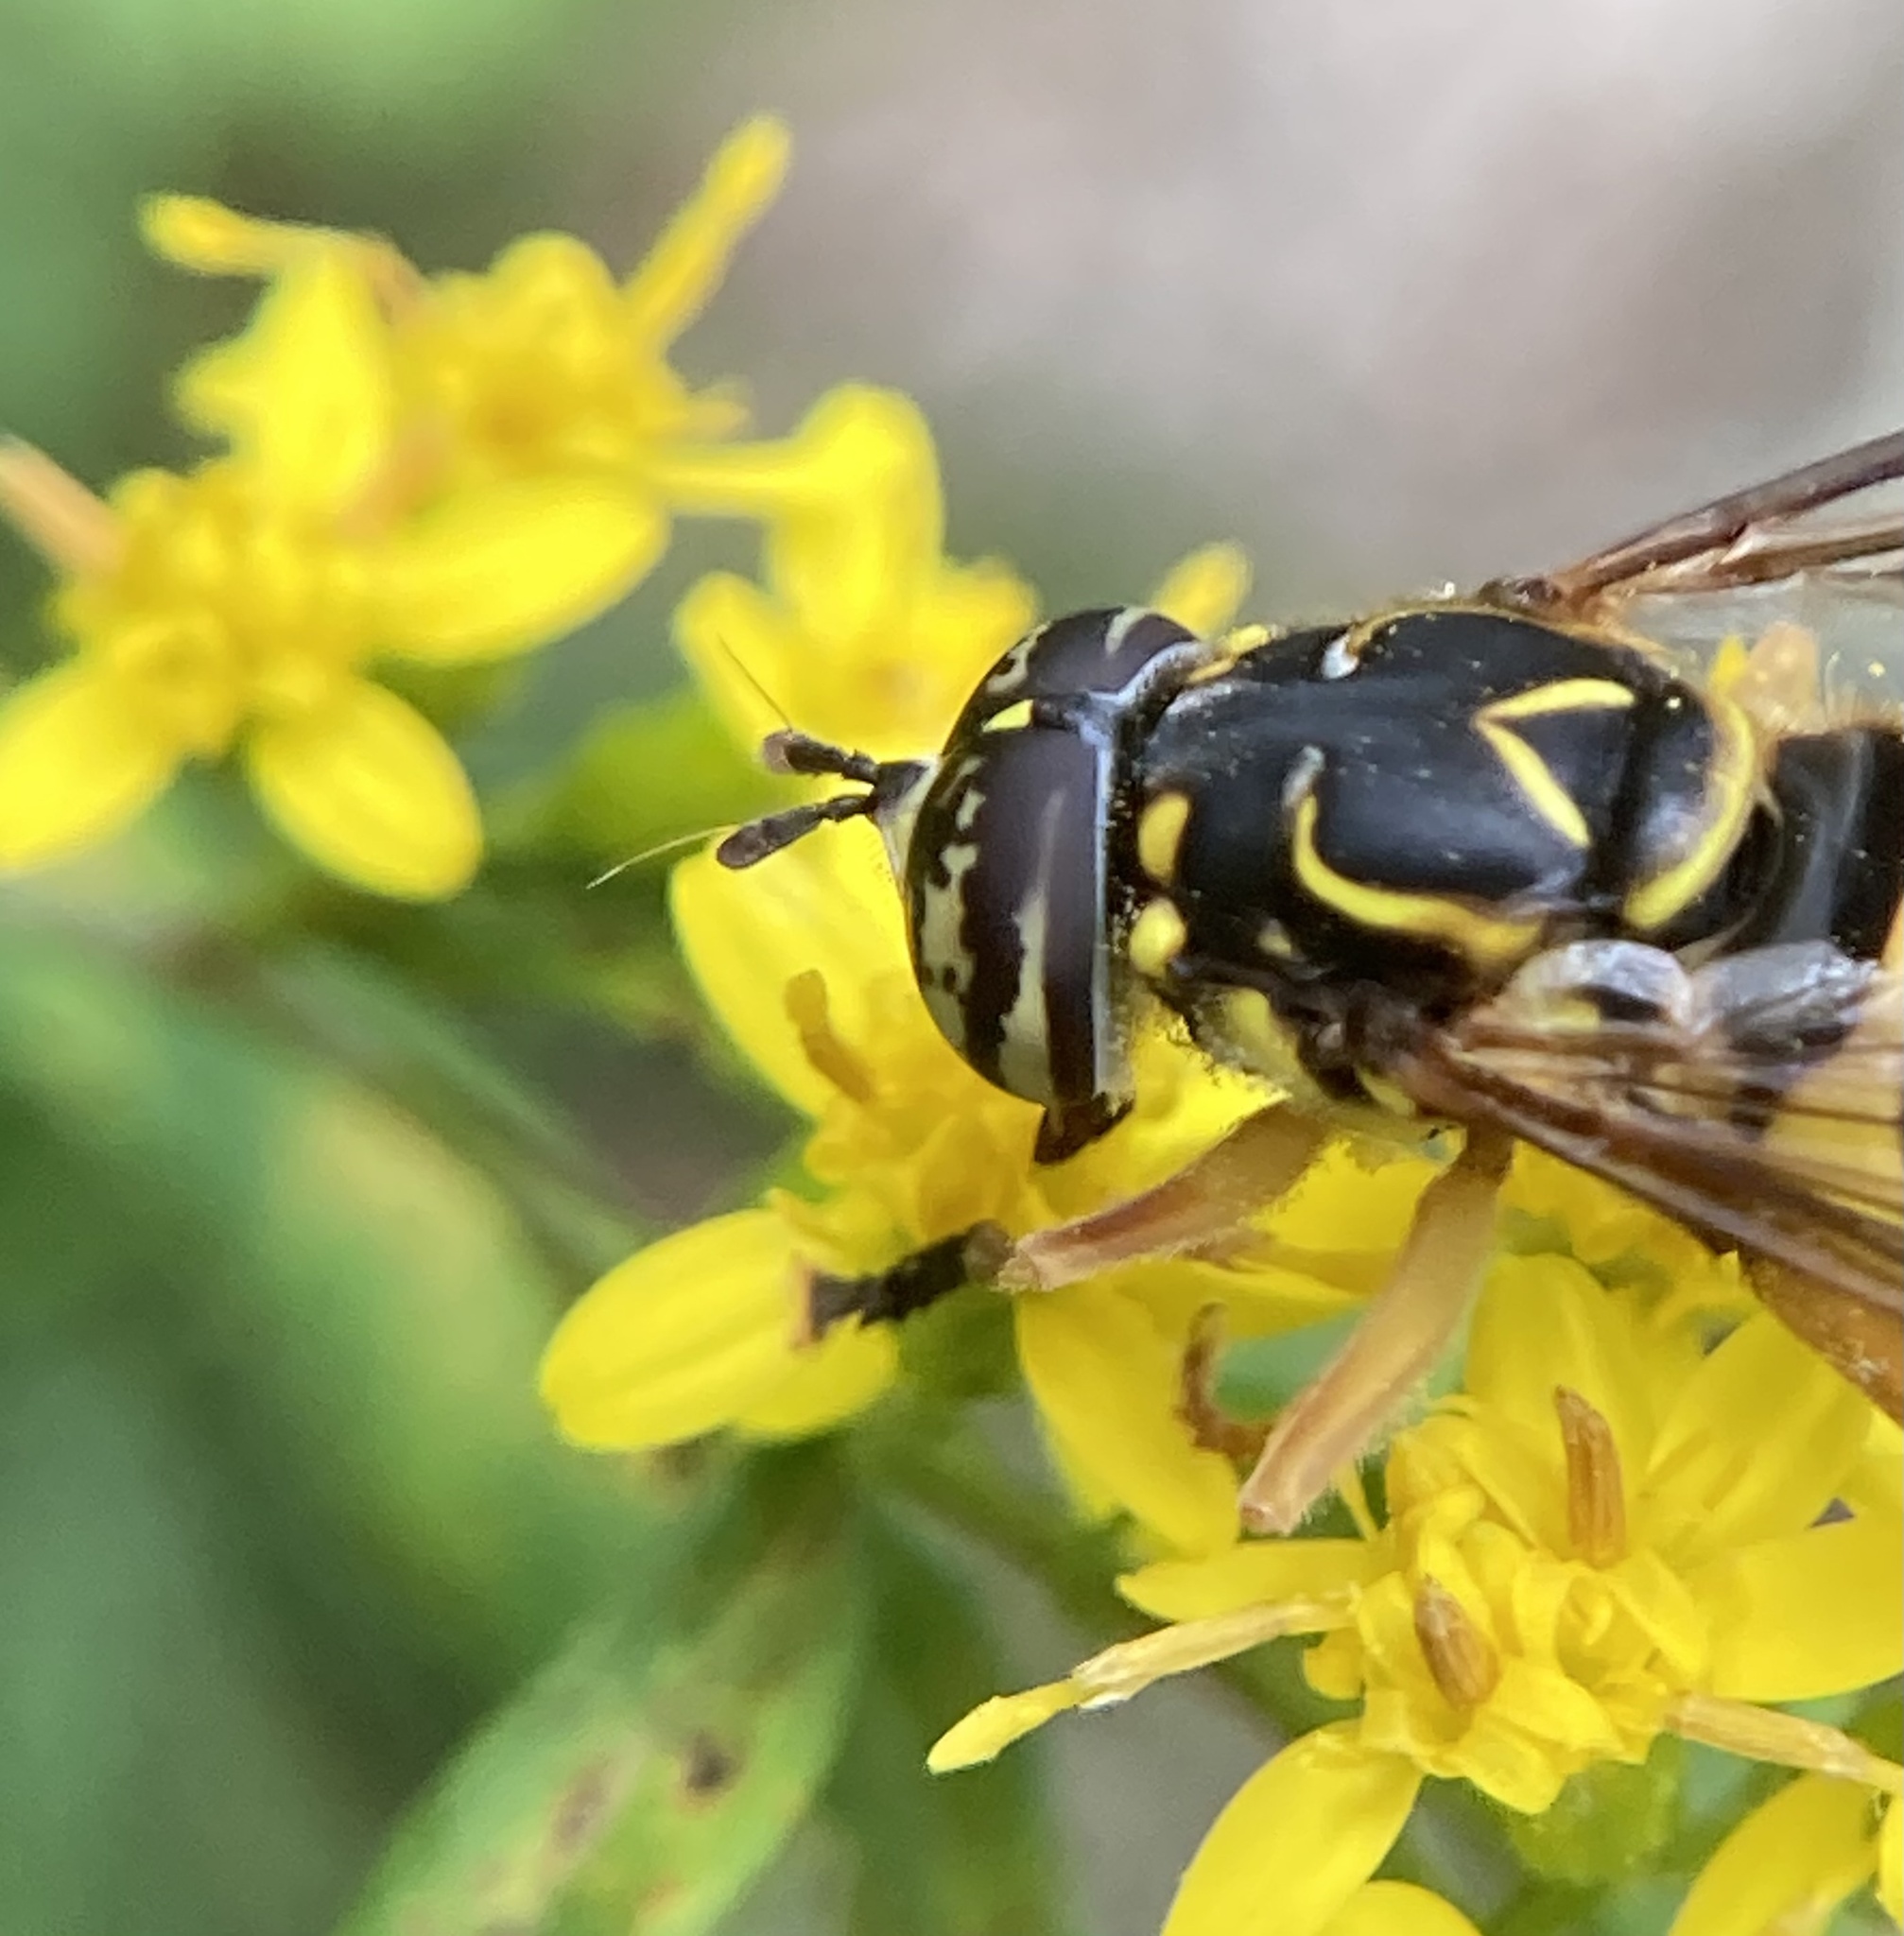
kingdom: Animalia
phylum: Arthropoda
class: Insecta
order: Diptera
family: Syrphidae
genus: Spilomyia
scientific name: Spilomyia longicornis
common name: Eastern hornet fly
